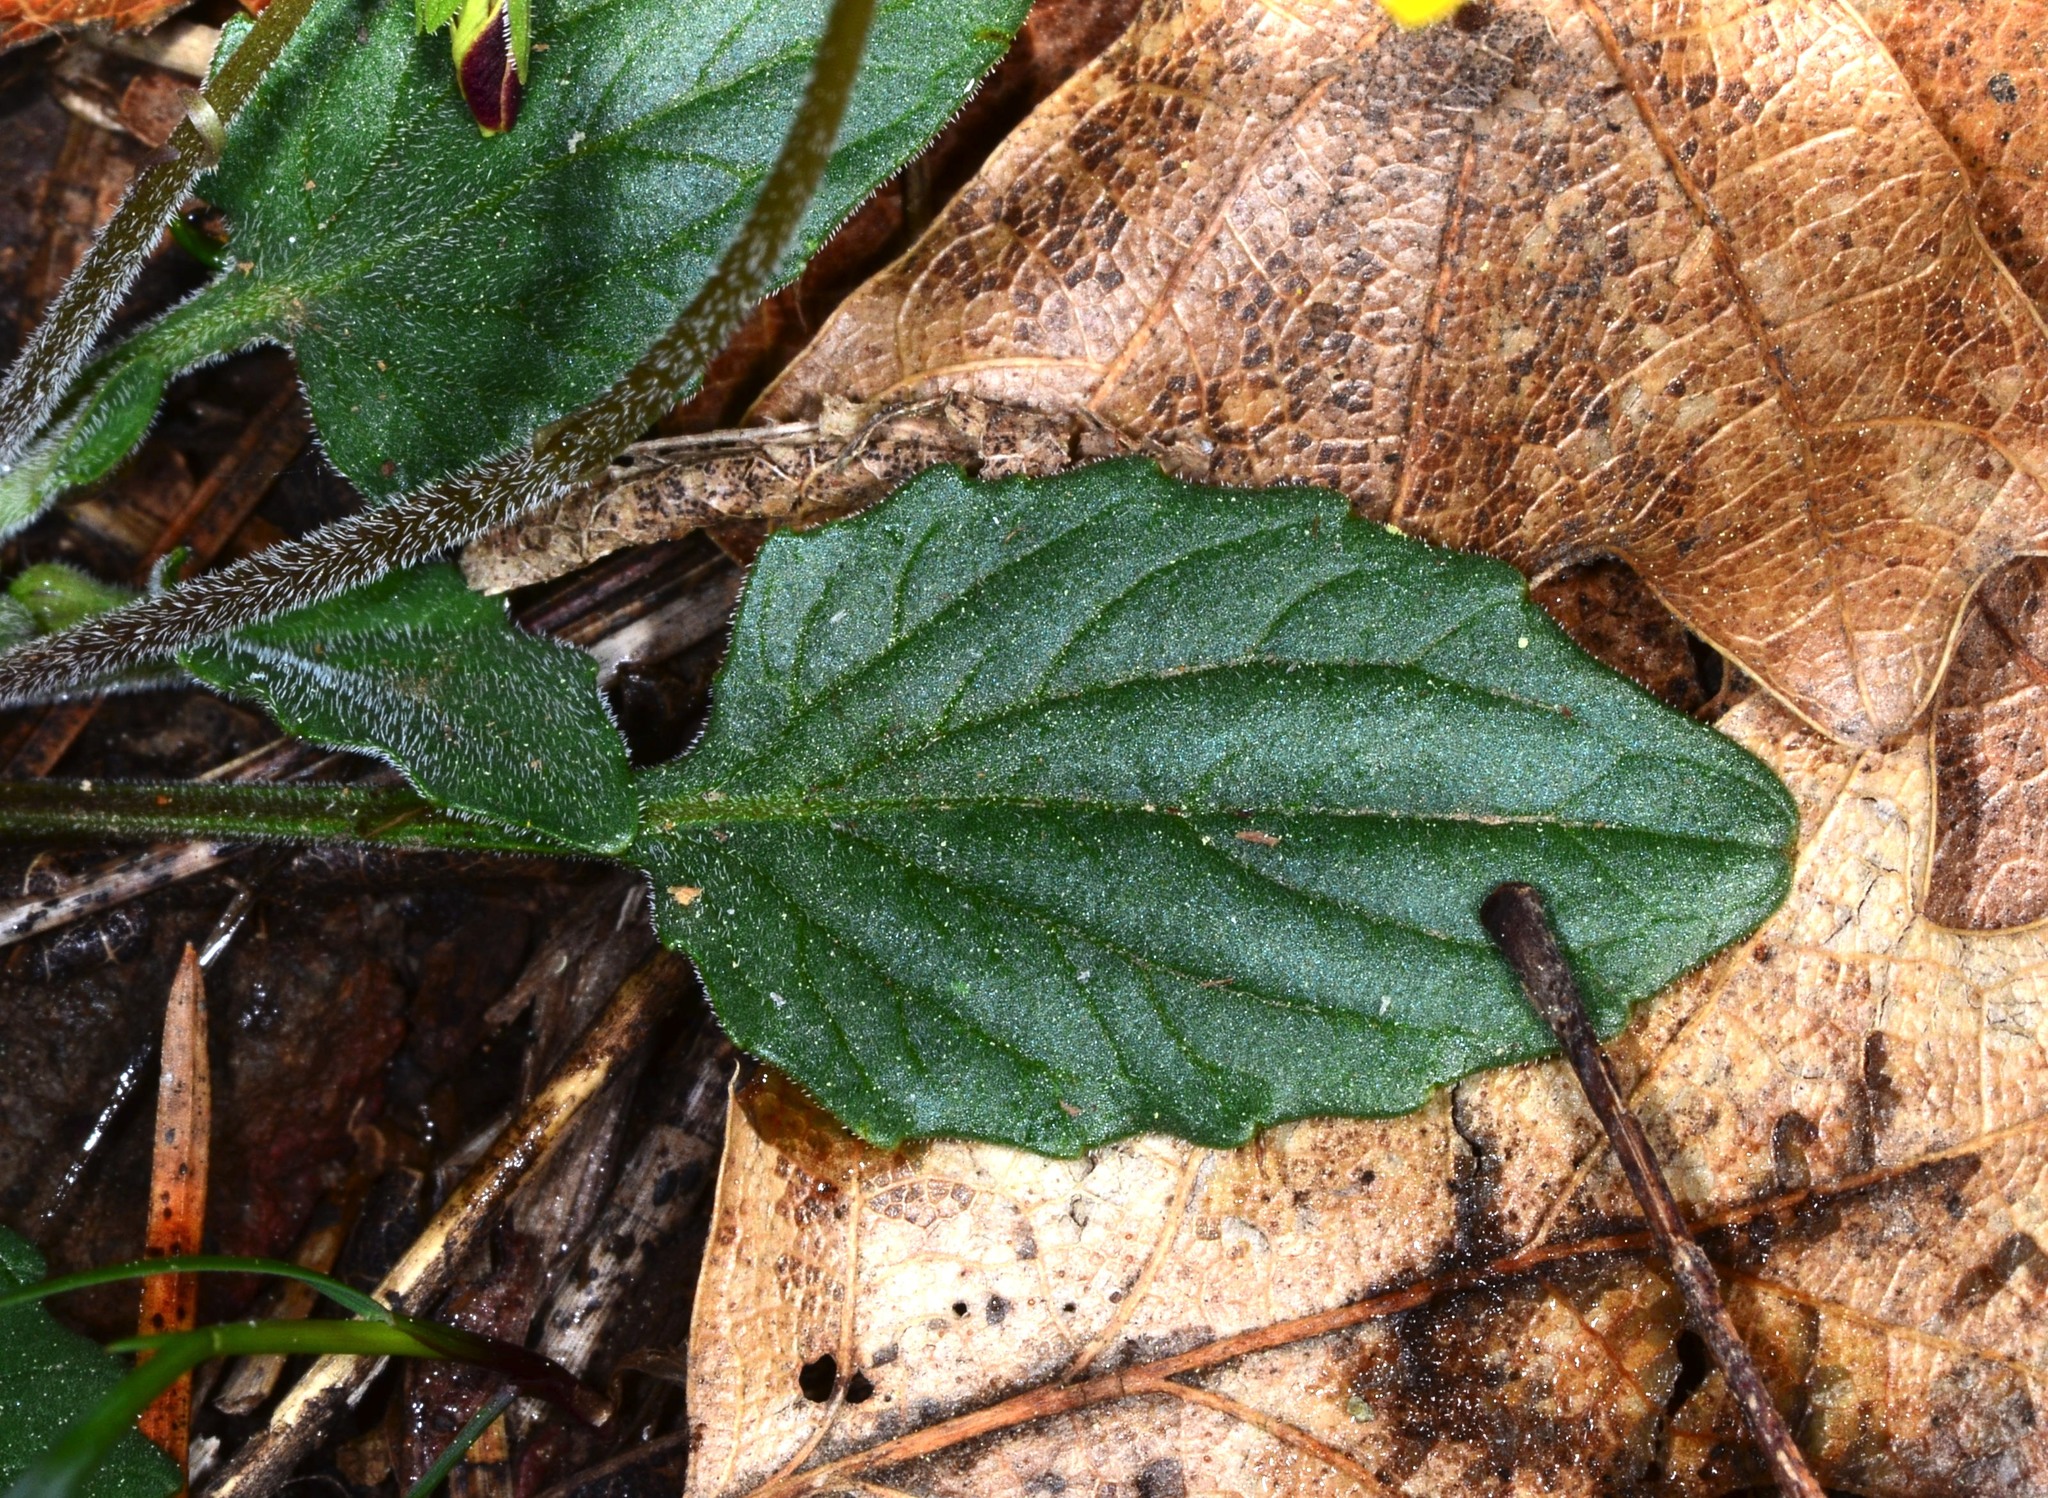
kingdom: Plantae
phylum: Tracheophyta
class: Magnoliopsida
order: Malpighiales
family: Violaceae
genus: Viola
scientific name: Viola purpurea
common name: Pine violet
